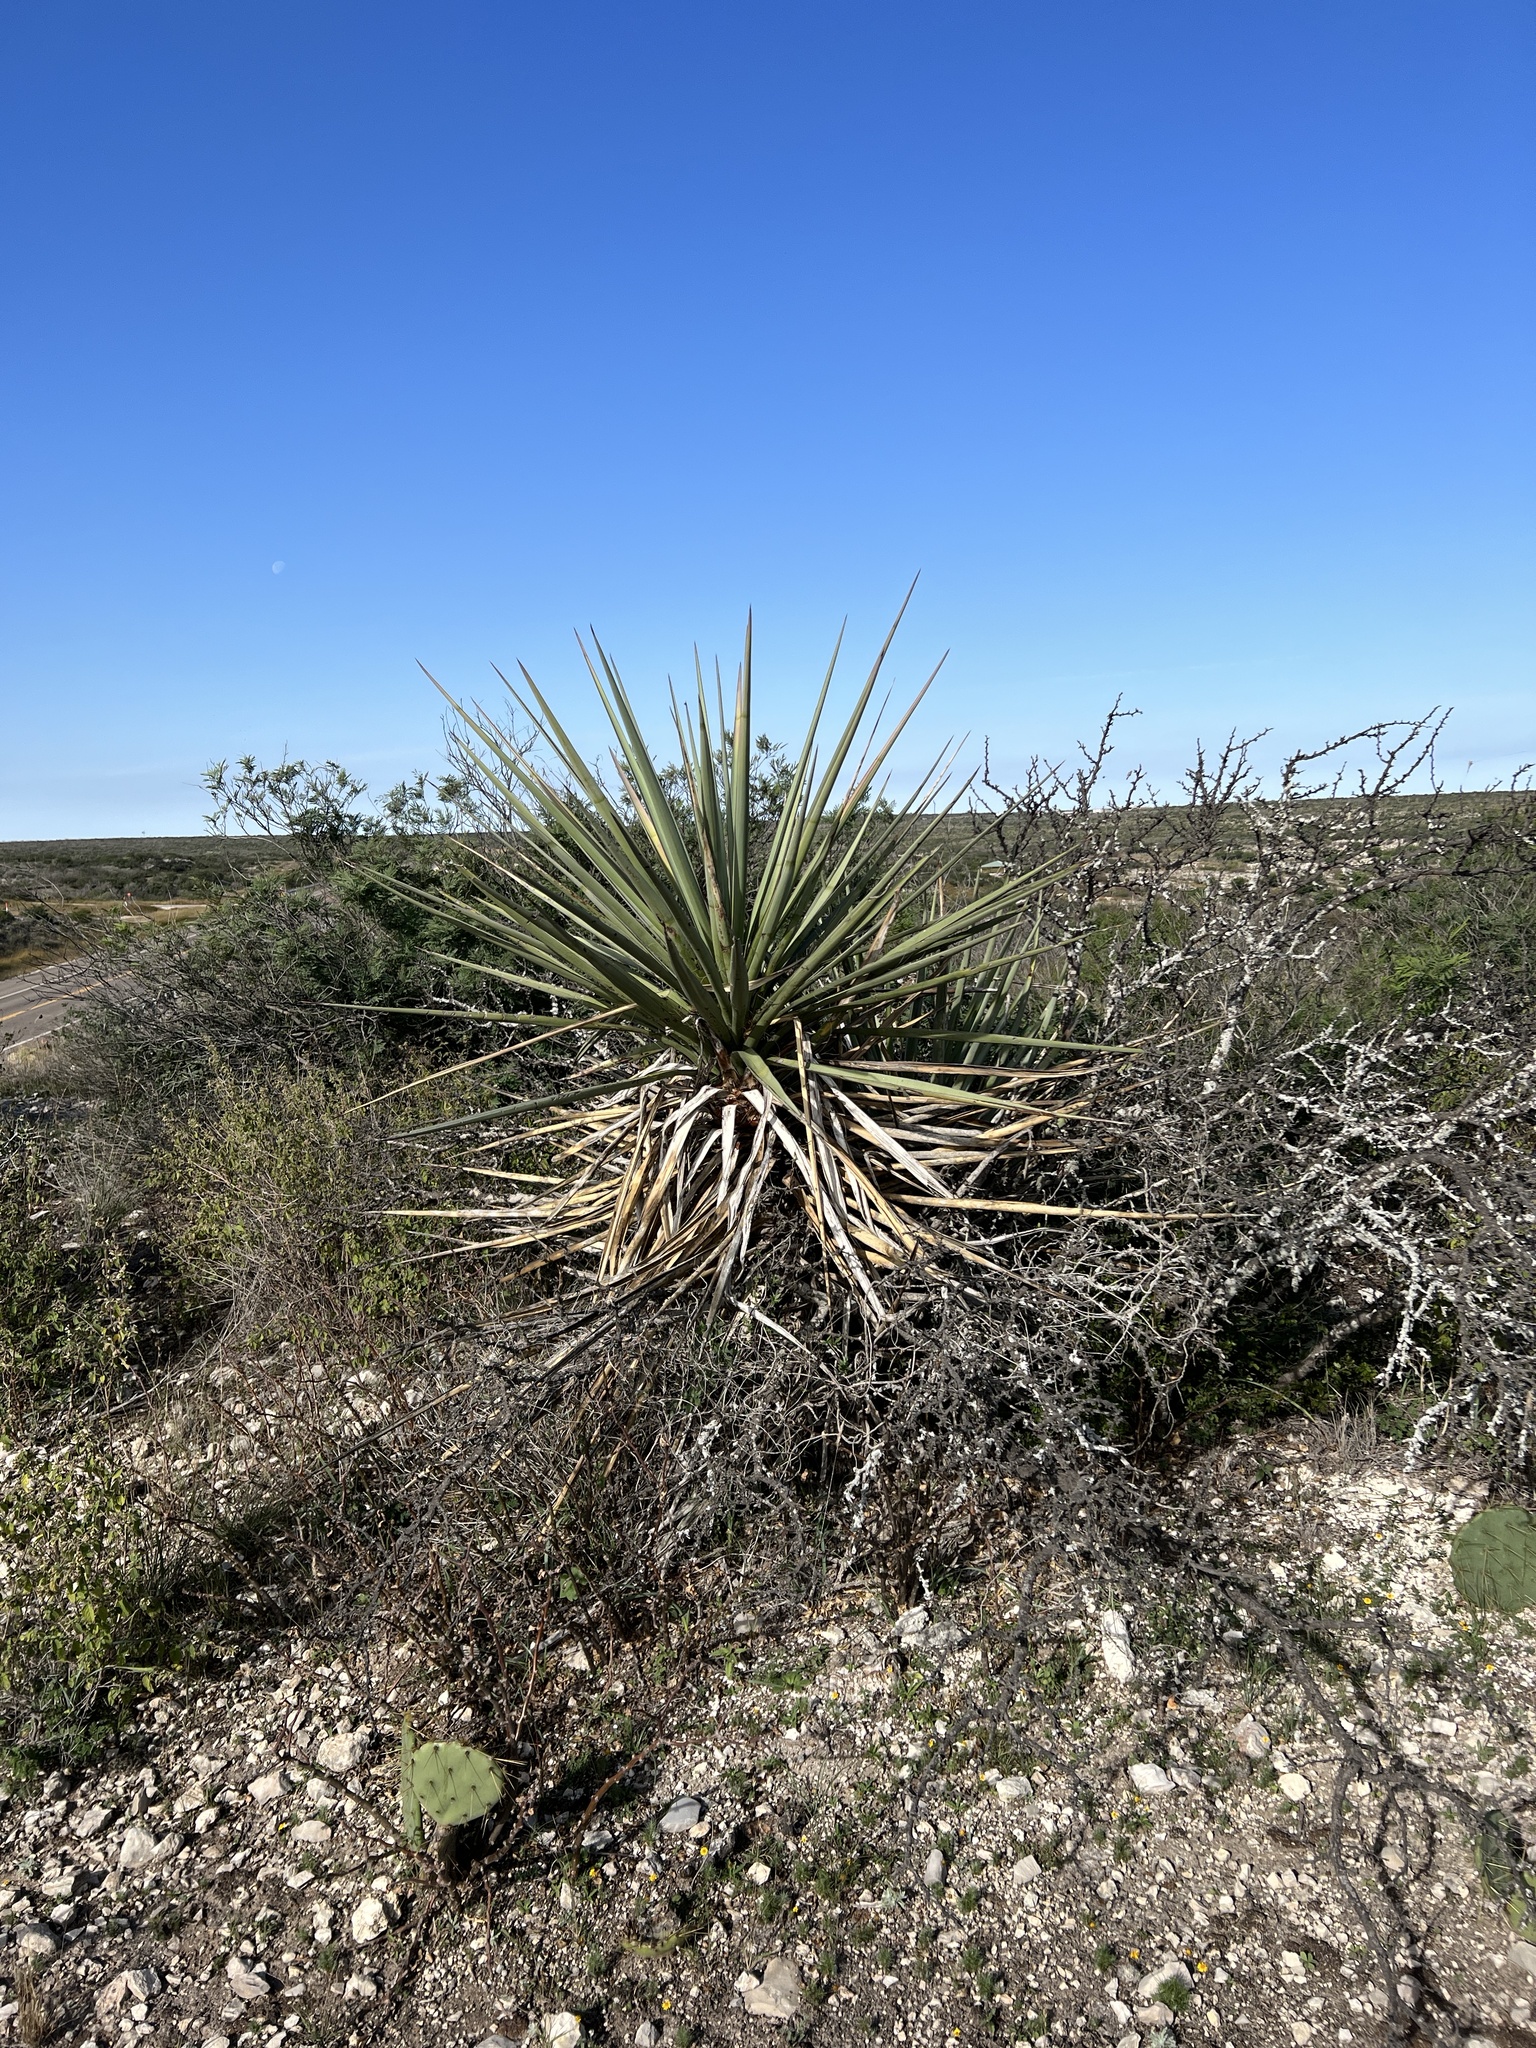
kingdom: Plantae
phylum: Tracheophyta
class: Liliopsida
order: Asparagales
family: Asparagaceae
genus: Yucca
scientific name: Yucca treculiana
